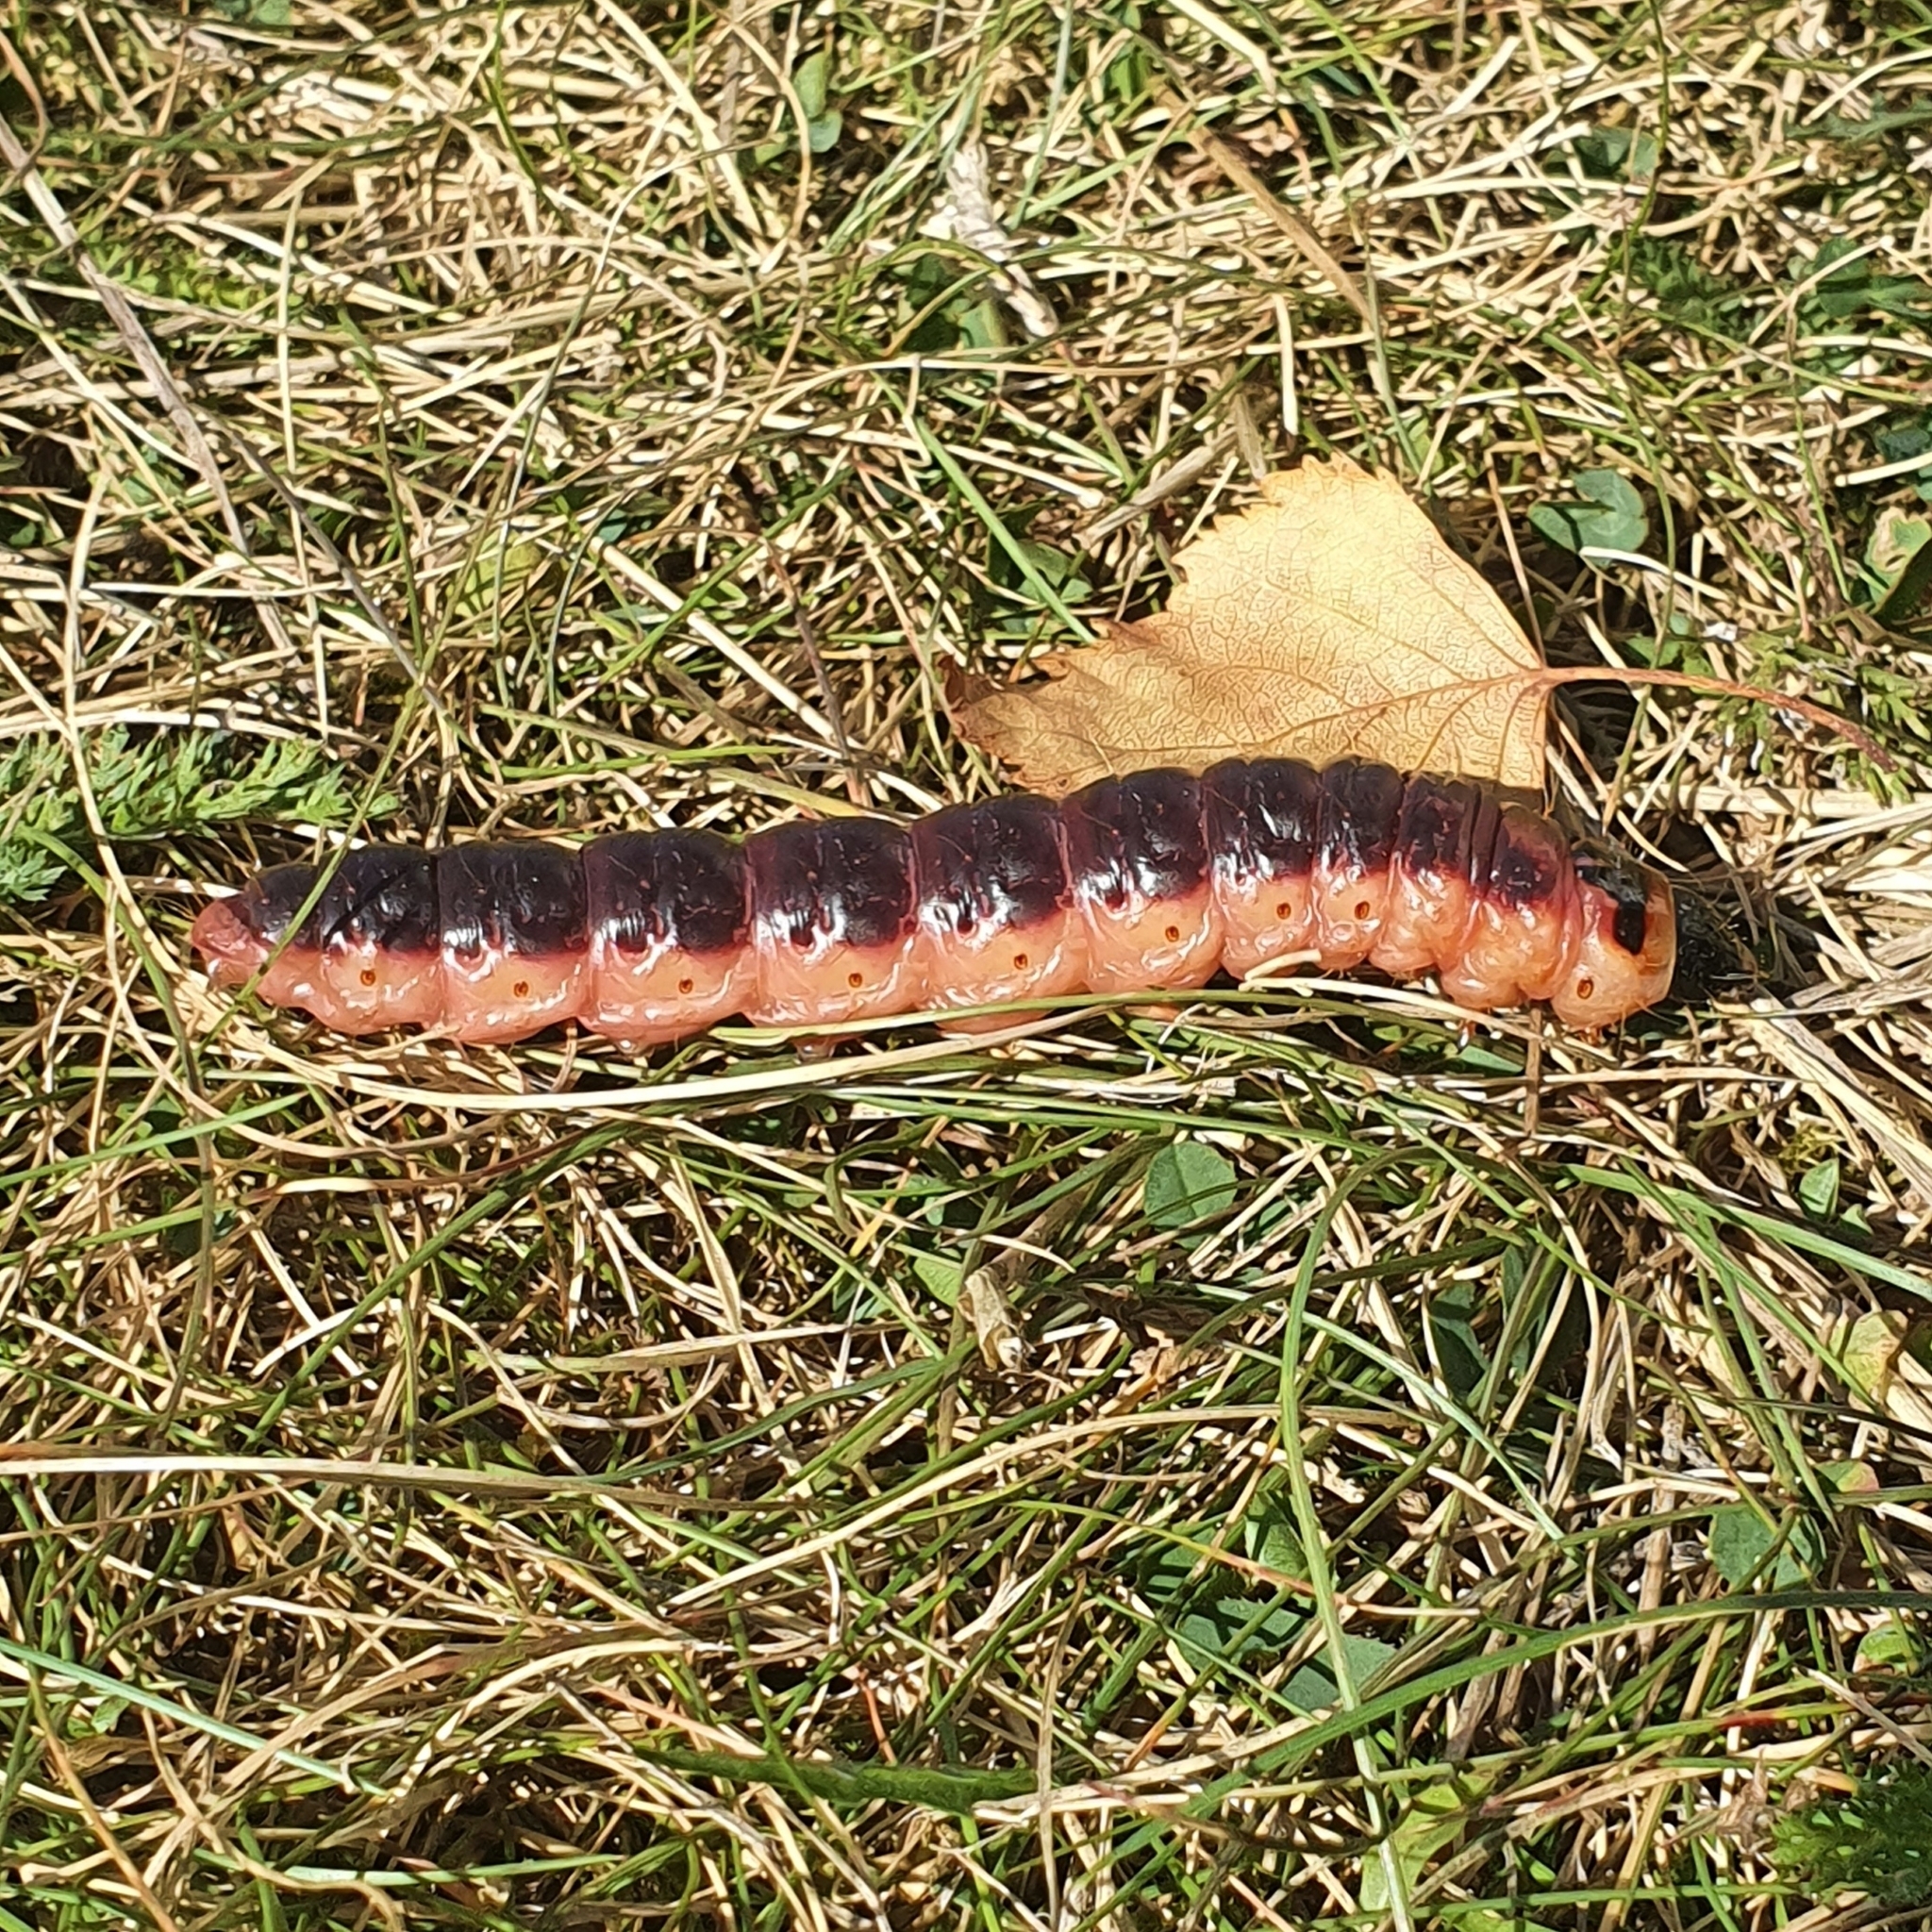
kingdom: Animalia
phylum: Arthropoda
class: Insecta
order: Lepidoptera
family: Cossidae
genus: Cossus
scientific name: Cossus cossus
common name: Goat moth
